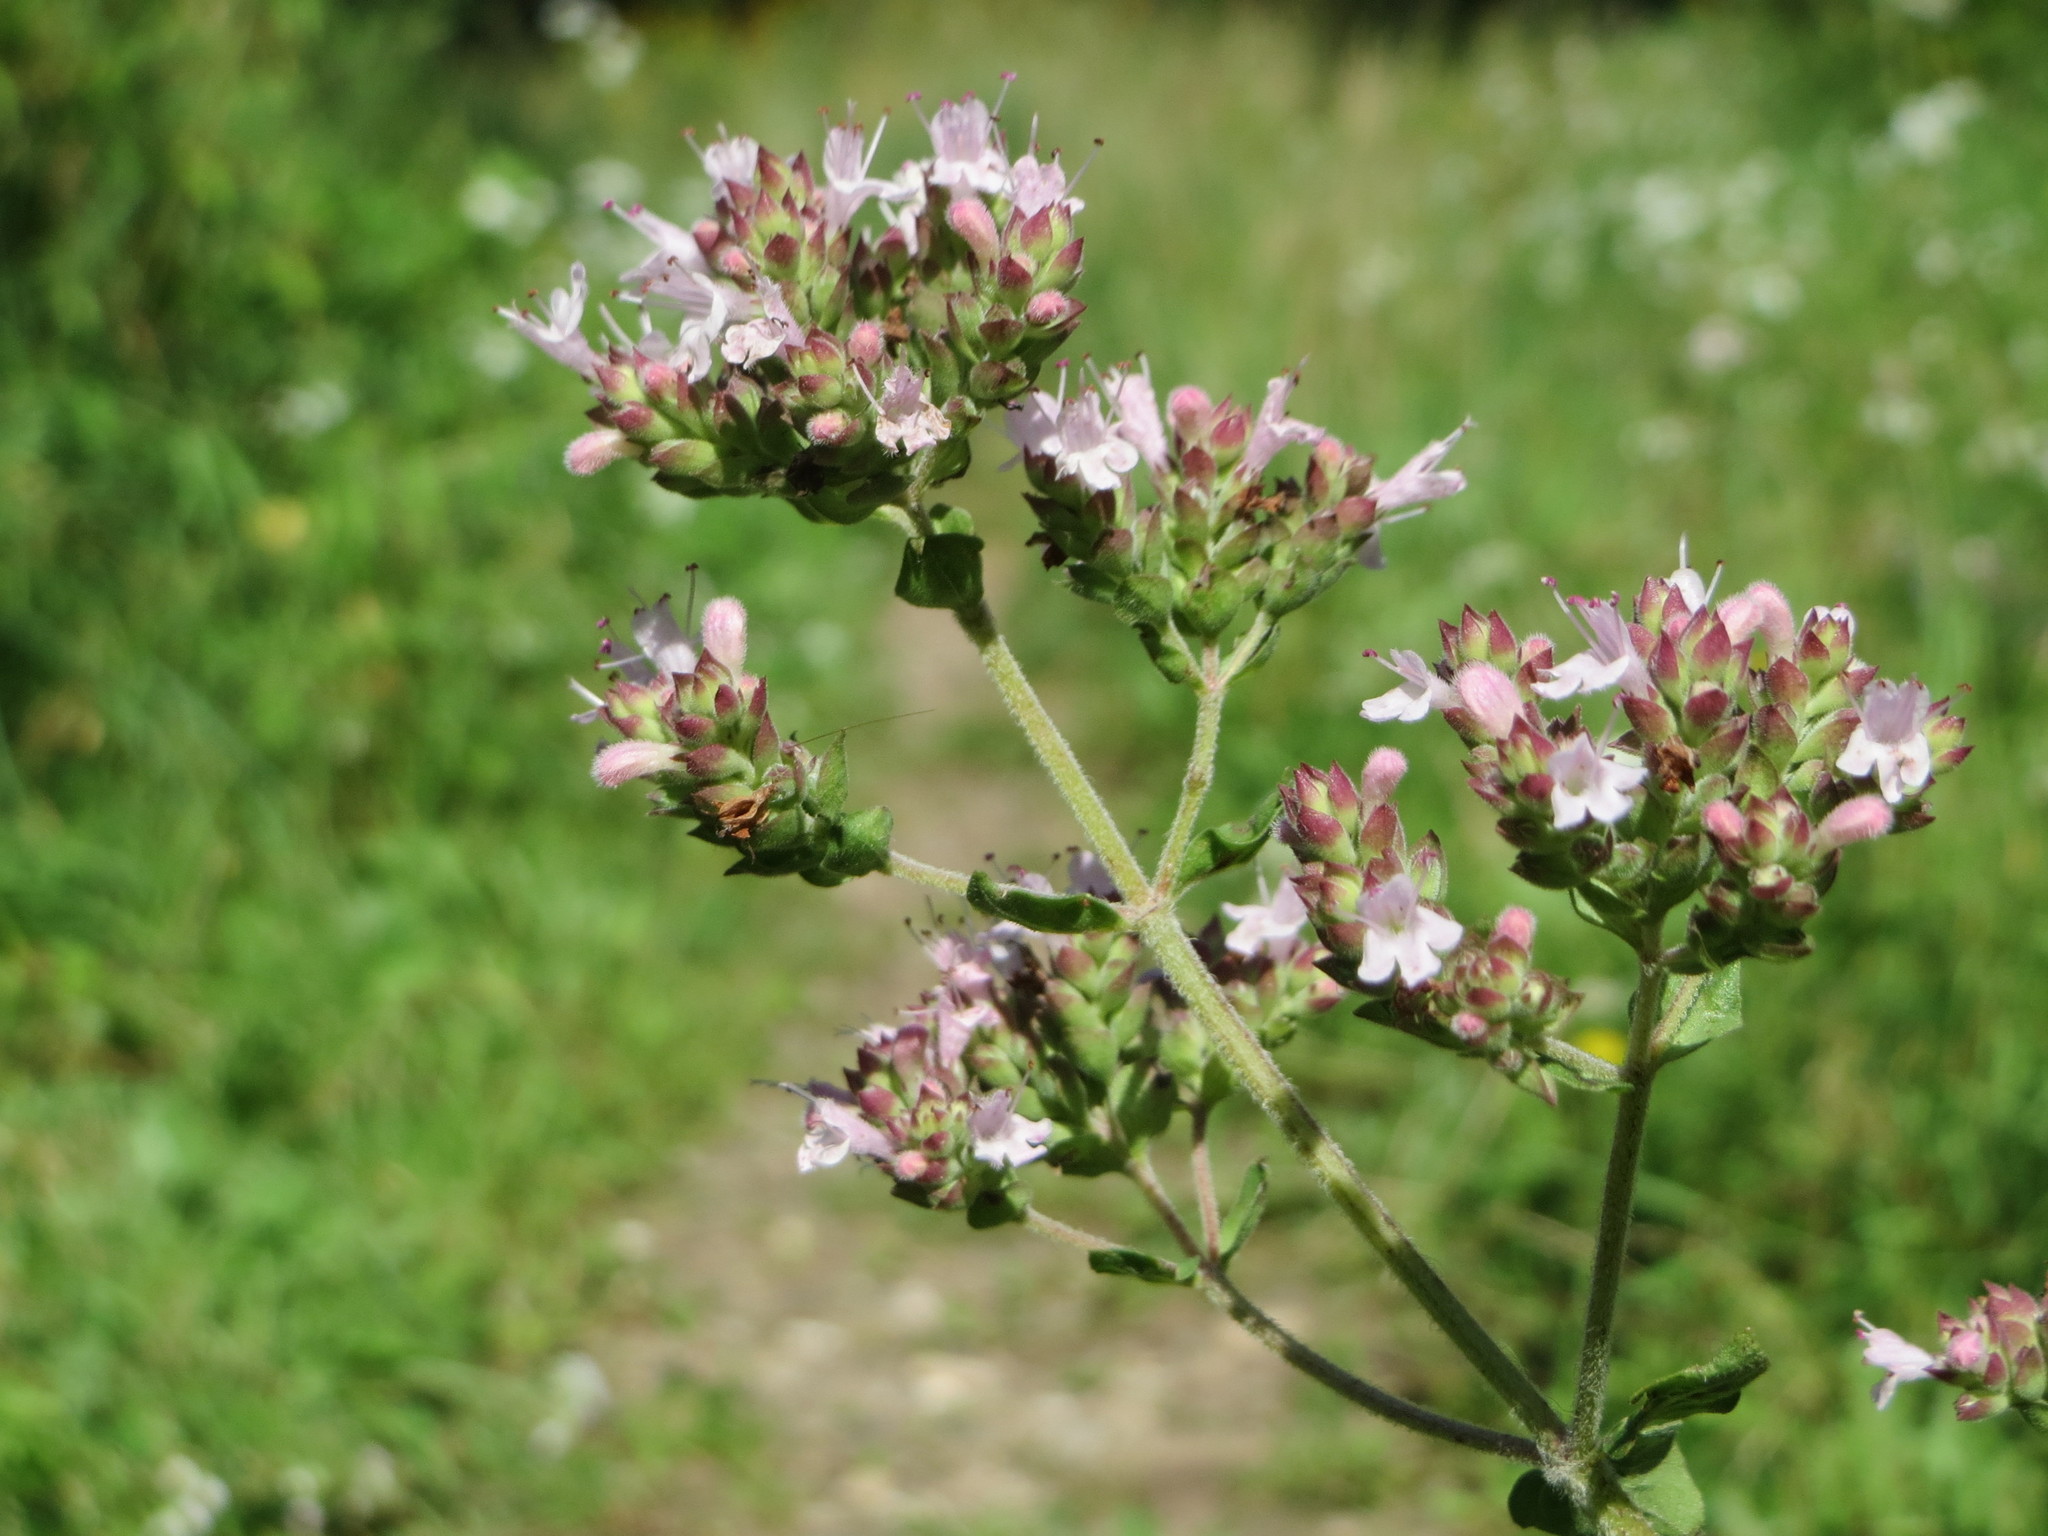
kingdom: Plantae
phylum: Tracheophyta
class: Magnoliopsida
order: Lamiales
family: Lamiaceae
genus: Origanum
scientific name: Origanum vulgare
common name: Wild marjoram
